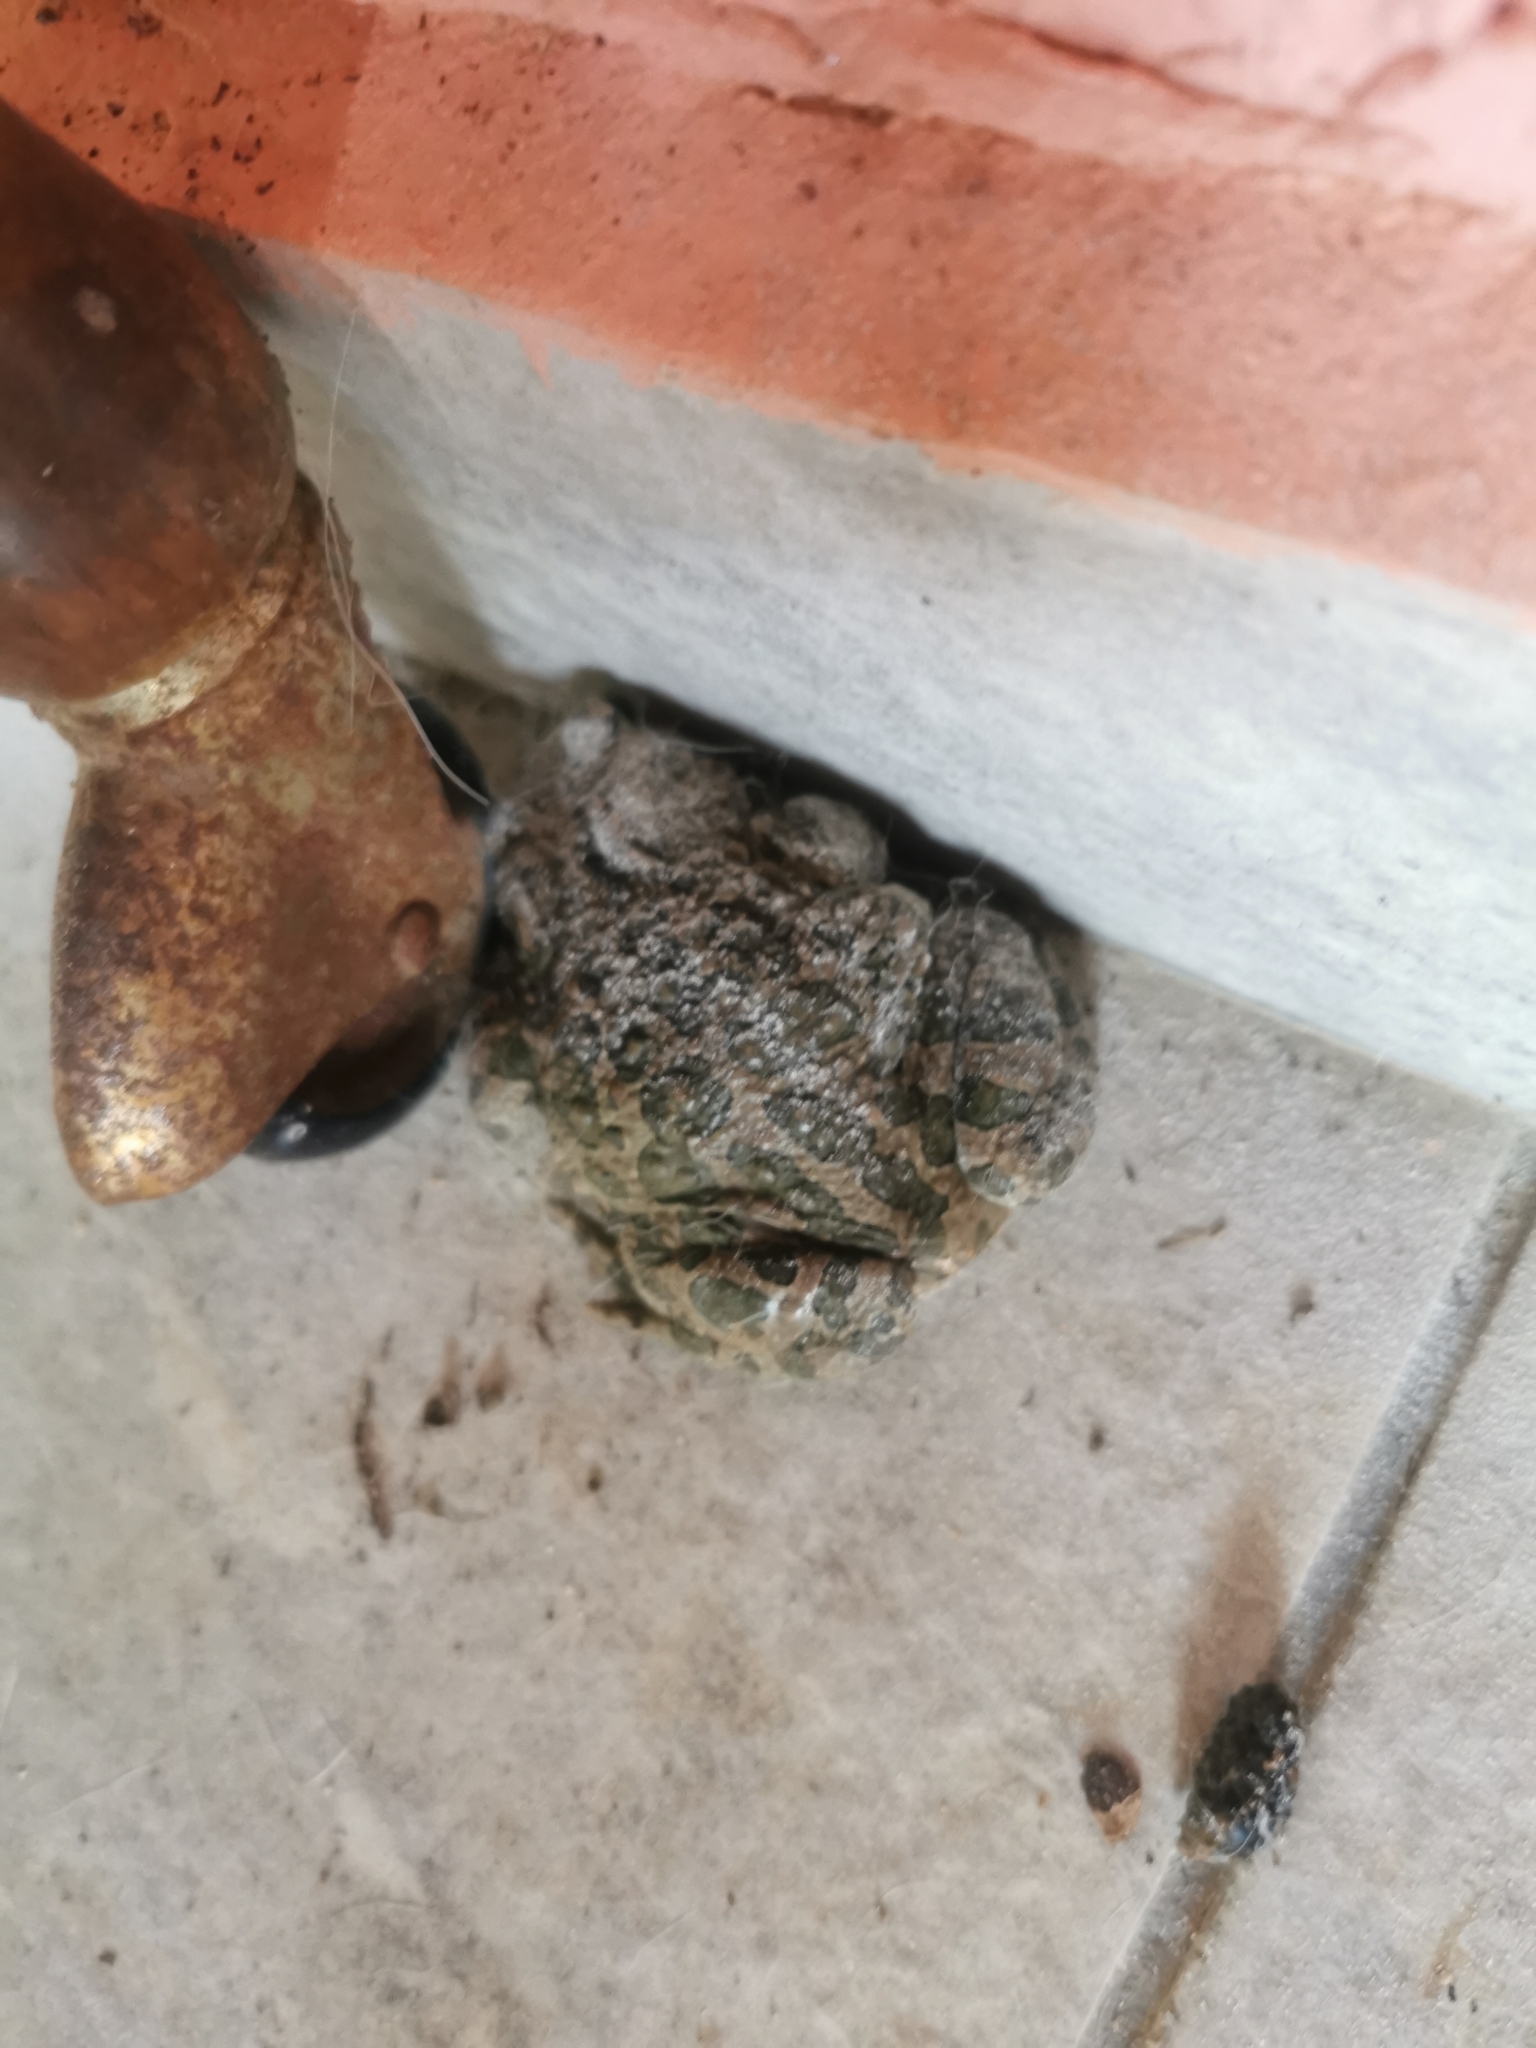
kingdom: Animalia
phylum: Chordata
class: Amphibia
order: Anura
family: Bufonidae
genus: Bufotes
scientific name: Bufotes viridis
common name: European green toad
